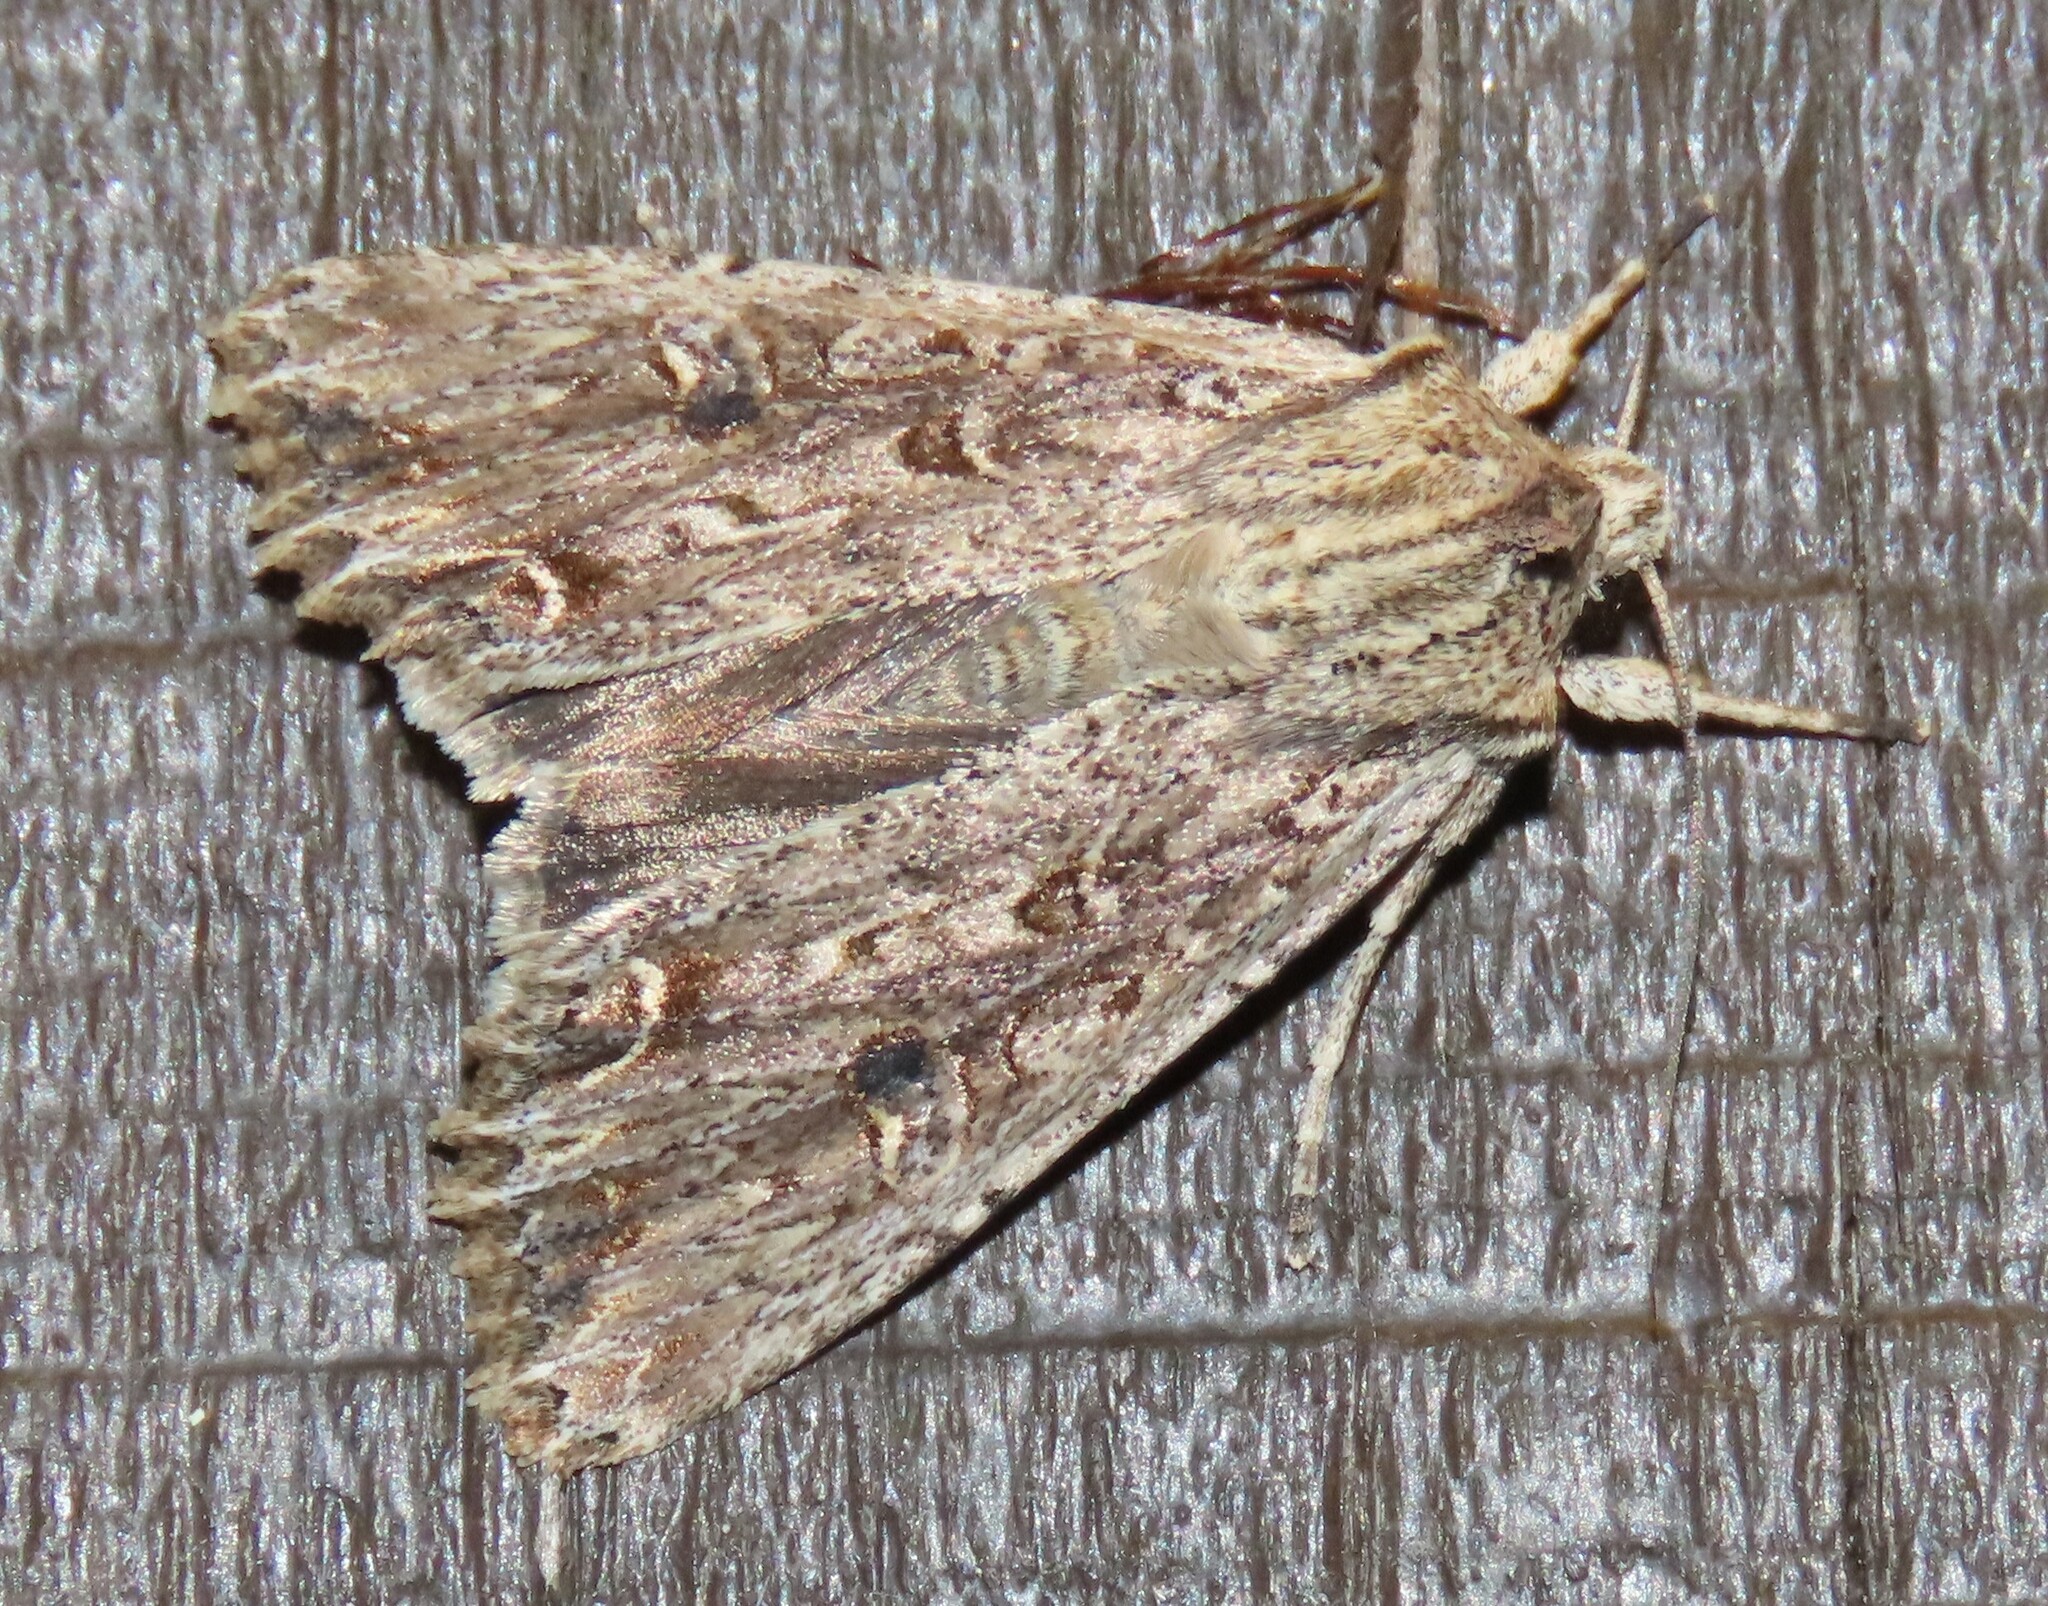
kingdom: Animalia
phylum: Arthropoda
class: Insecta
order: Lepidoptera
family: Noctuidae
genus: Ichneutica
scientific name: Ichneutica lignana
